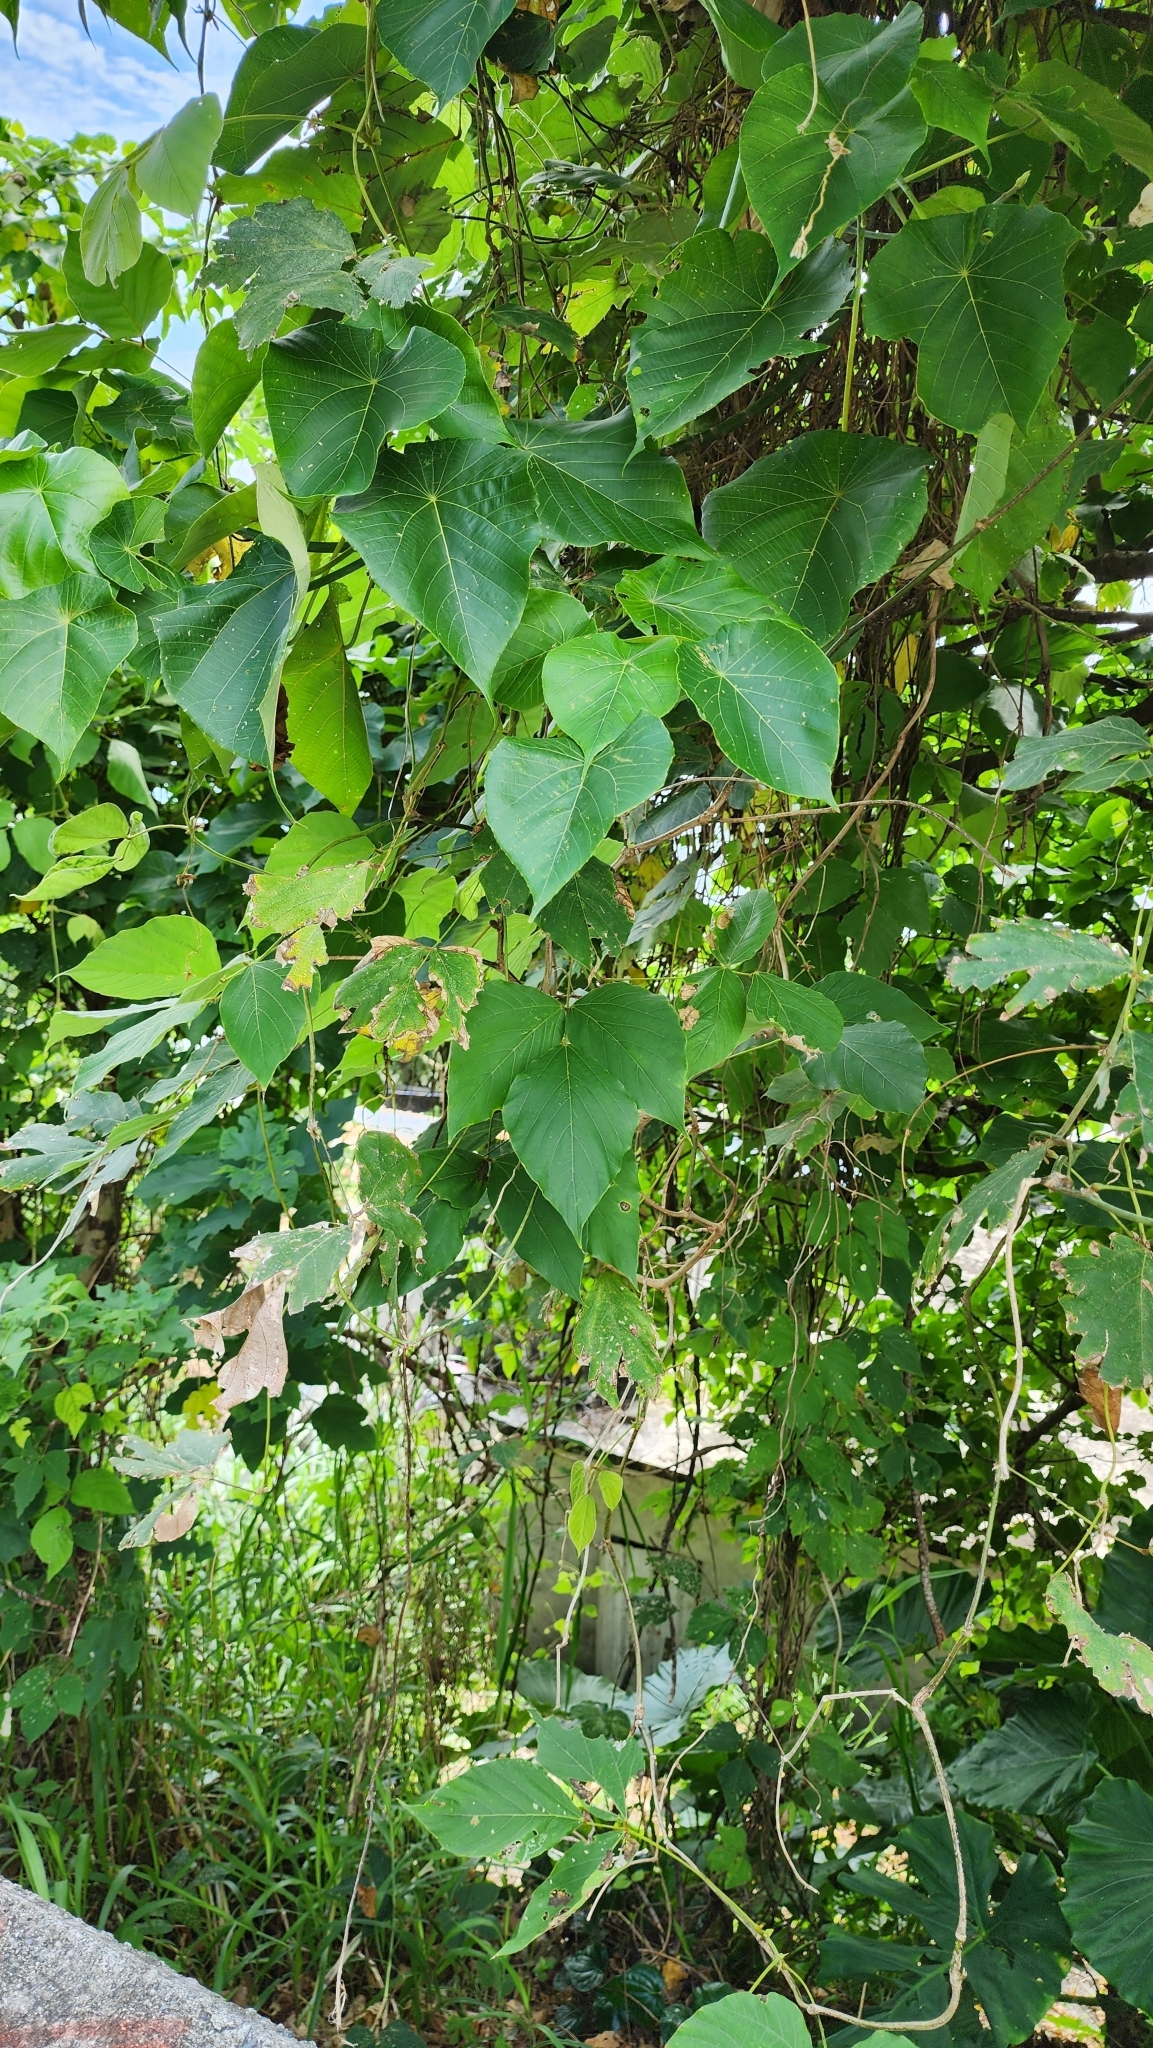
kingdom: Plantae
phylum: Tracheophyta
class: Magnoliopsida
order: Malpighiales
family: Euphorbiaceae
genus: Macaranga
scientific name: Macaranga tanarius
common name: Parasol leaf tree
